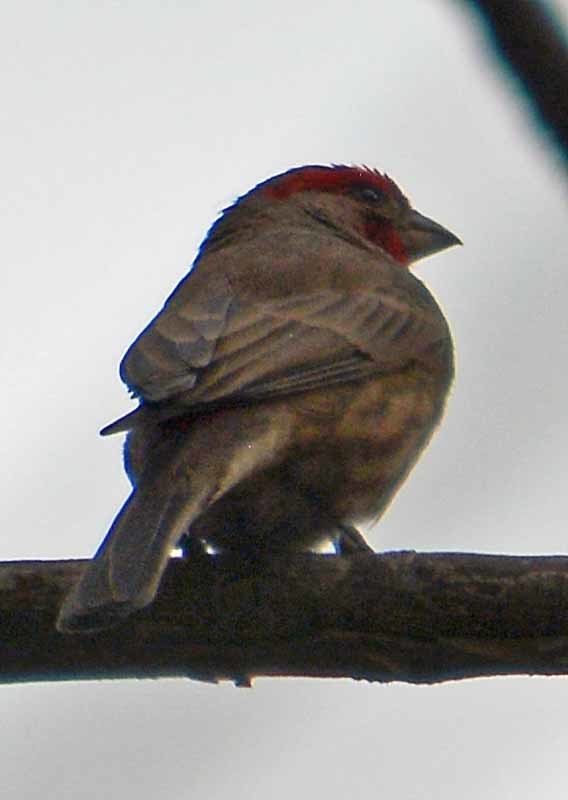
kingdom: Animalia
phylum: Chordata
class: Aves
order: Passeriformes
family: Fringillidae
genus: Haemorhous
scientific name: Haemorhous mexicanus
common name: House finch
